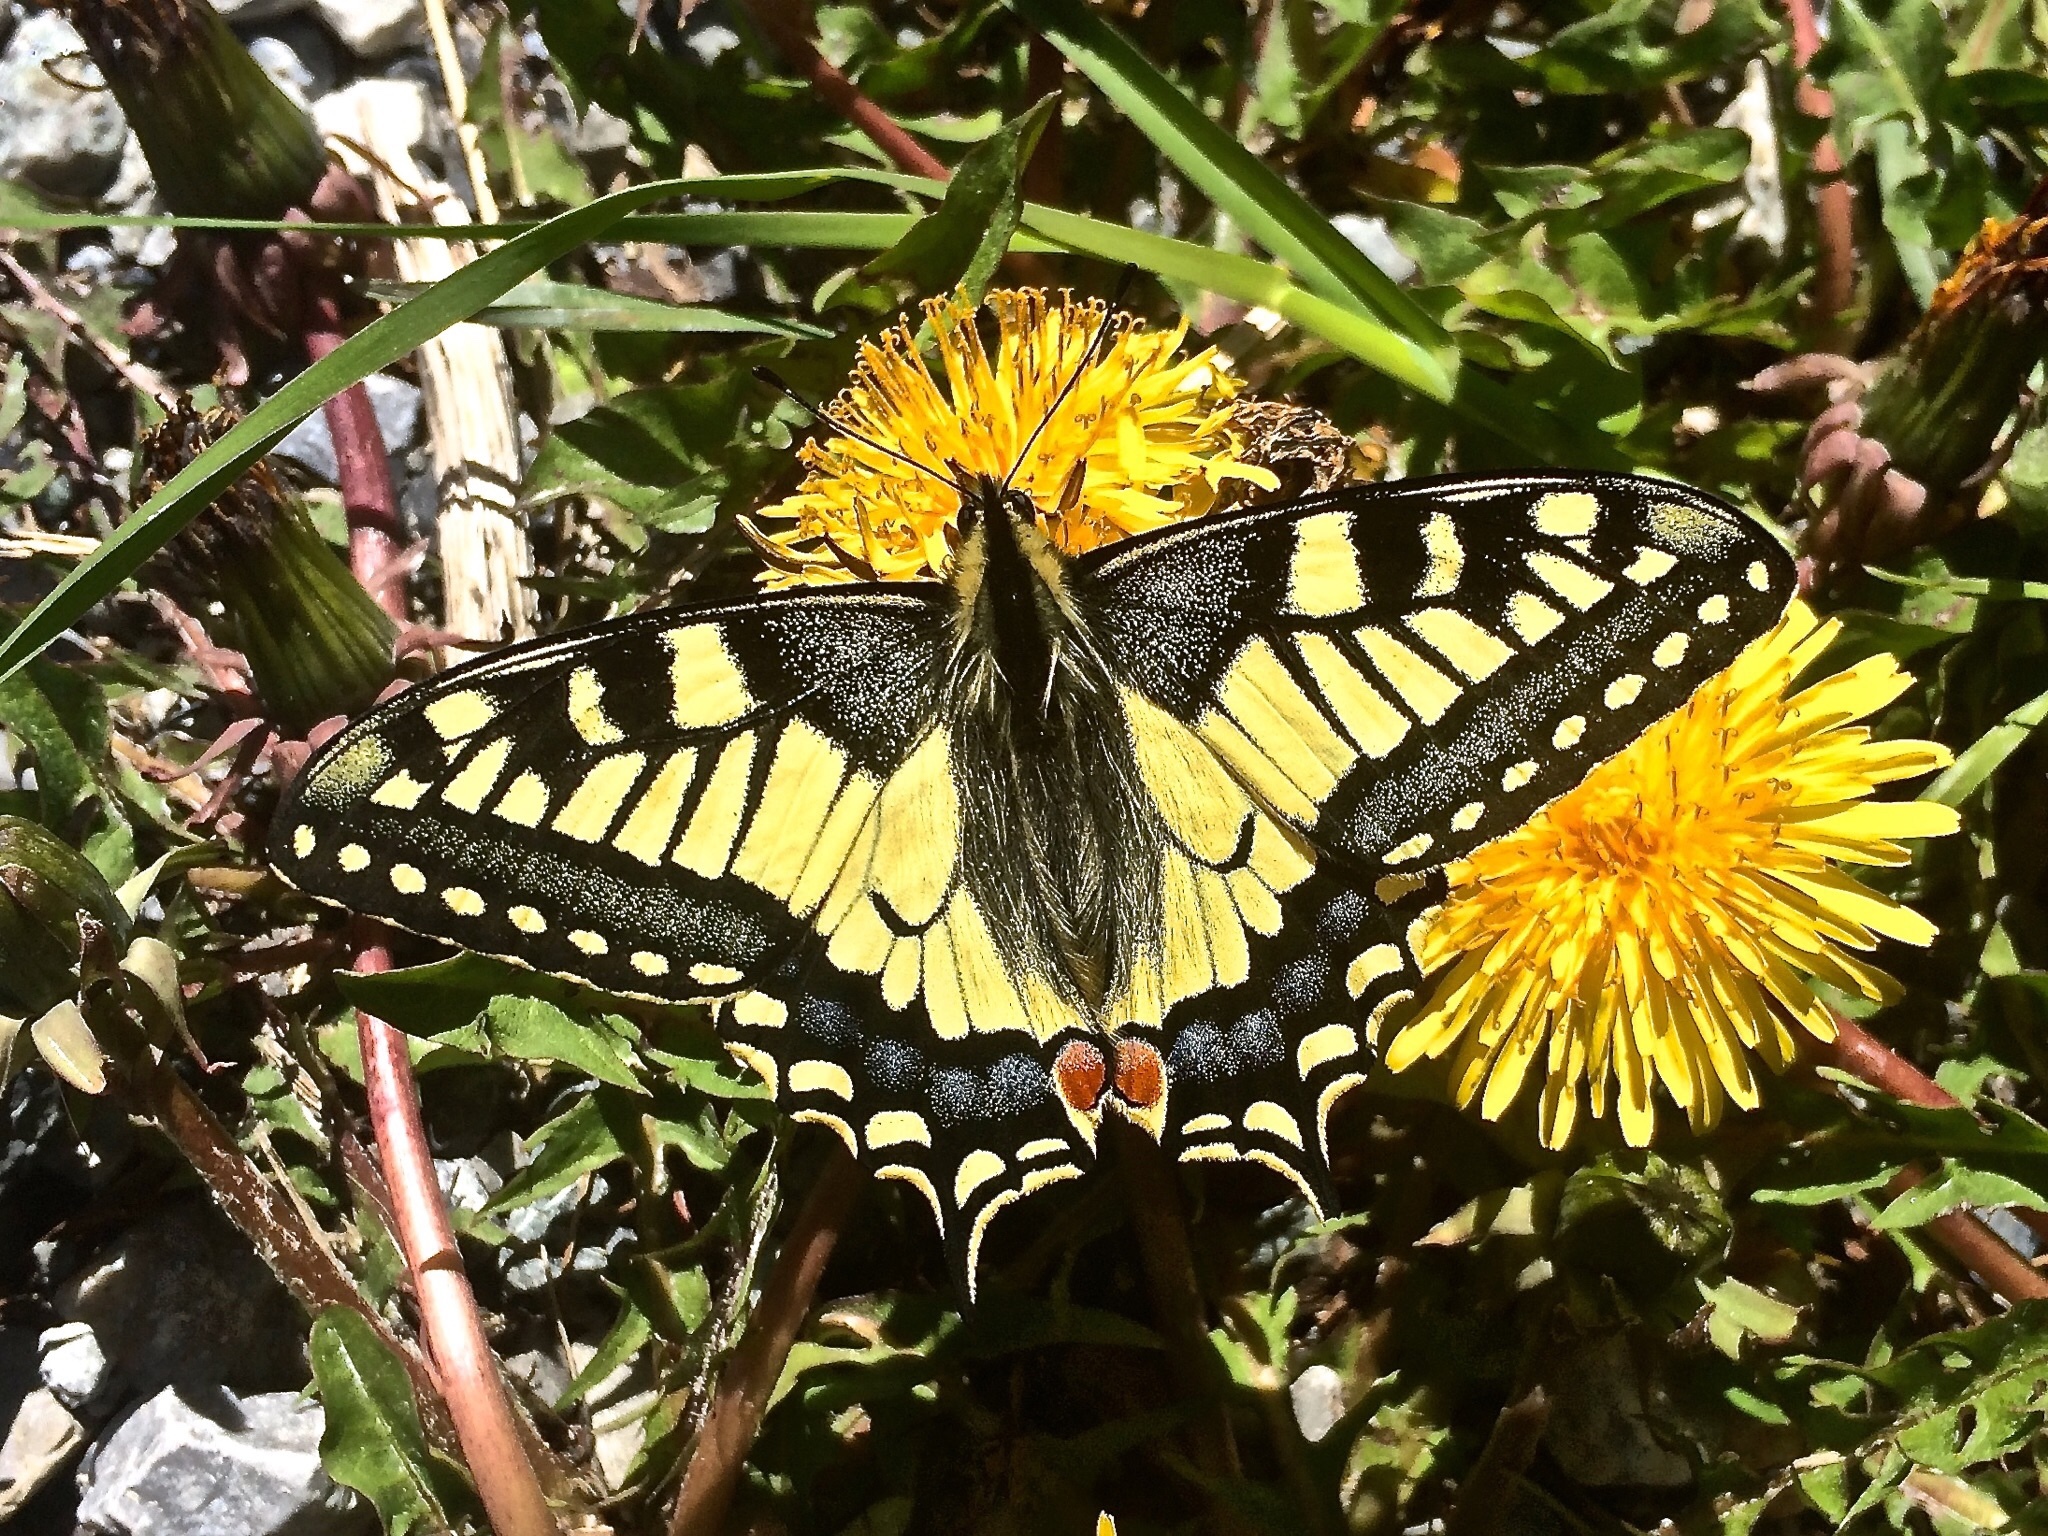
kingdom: Animalia
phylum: Arthropoda
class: Insecta
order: Lepidoptera
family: Papilionidae
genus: Papilio
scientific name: Papilio machaon
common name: Swallowtail
